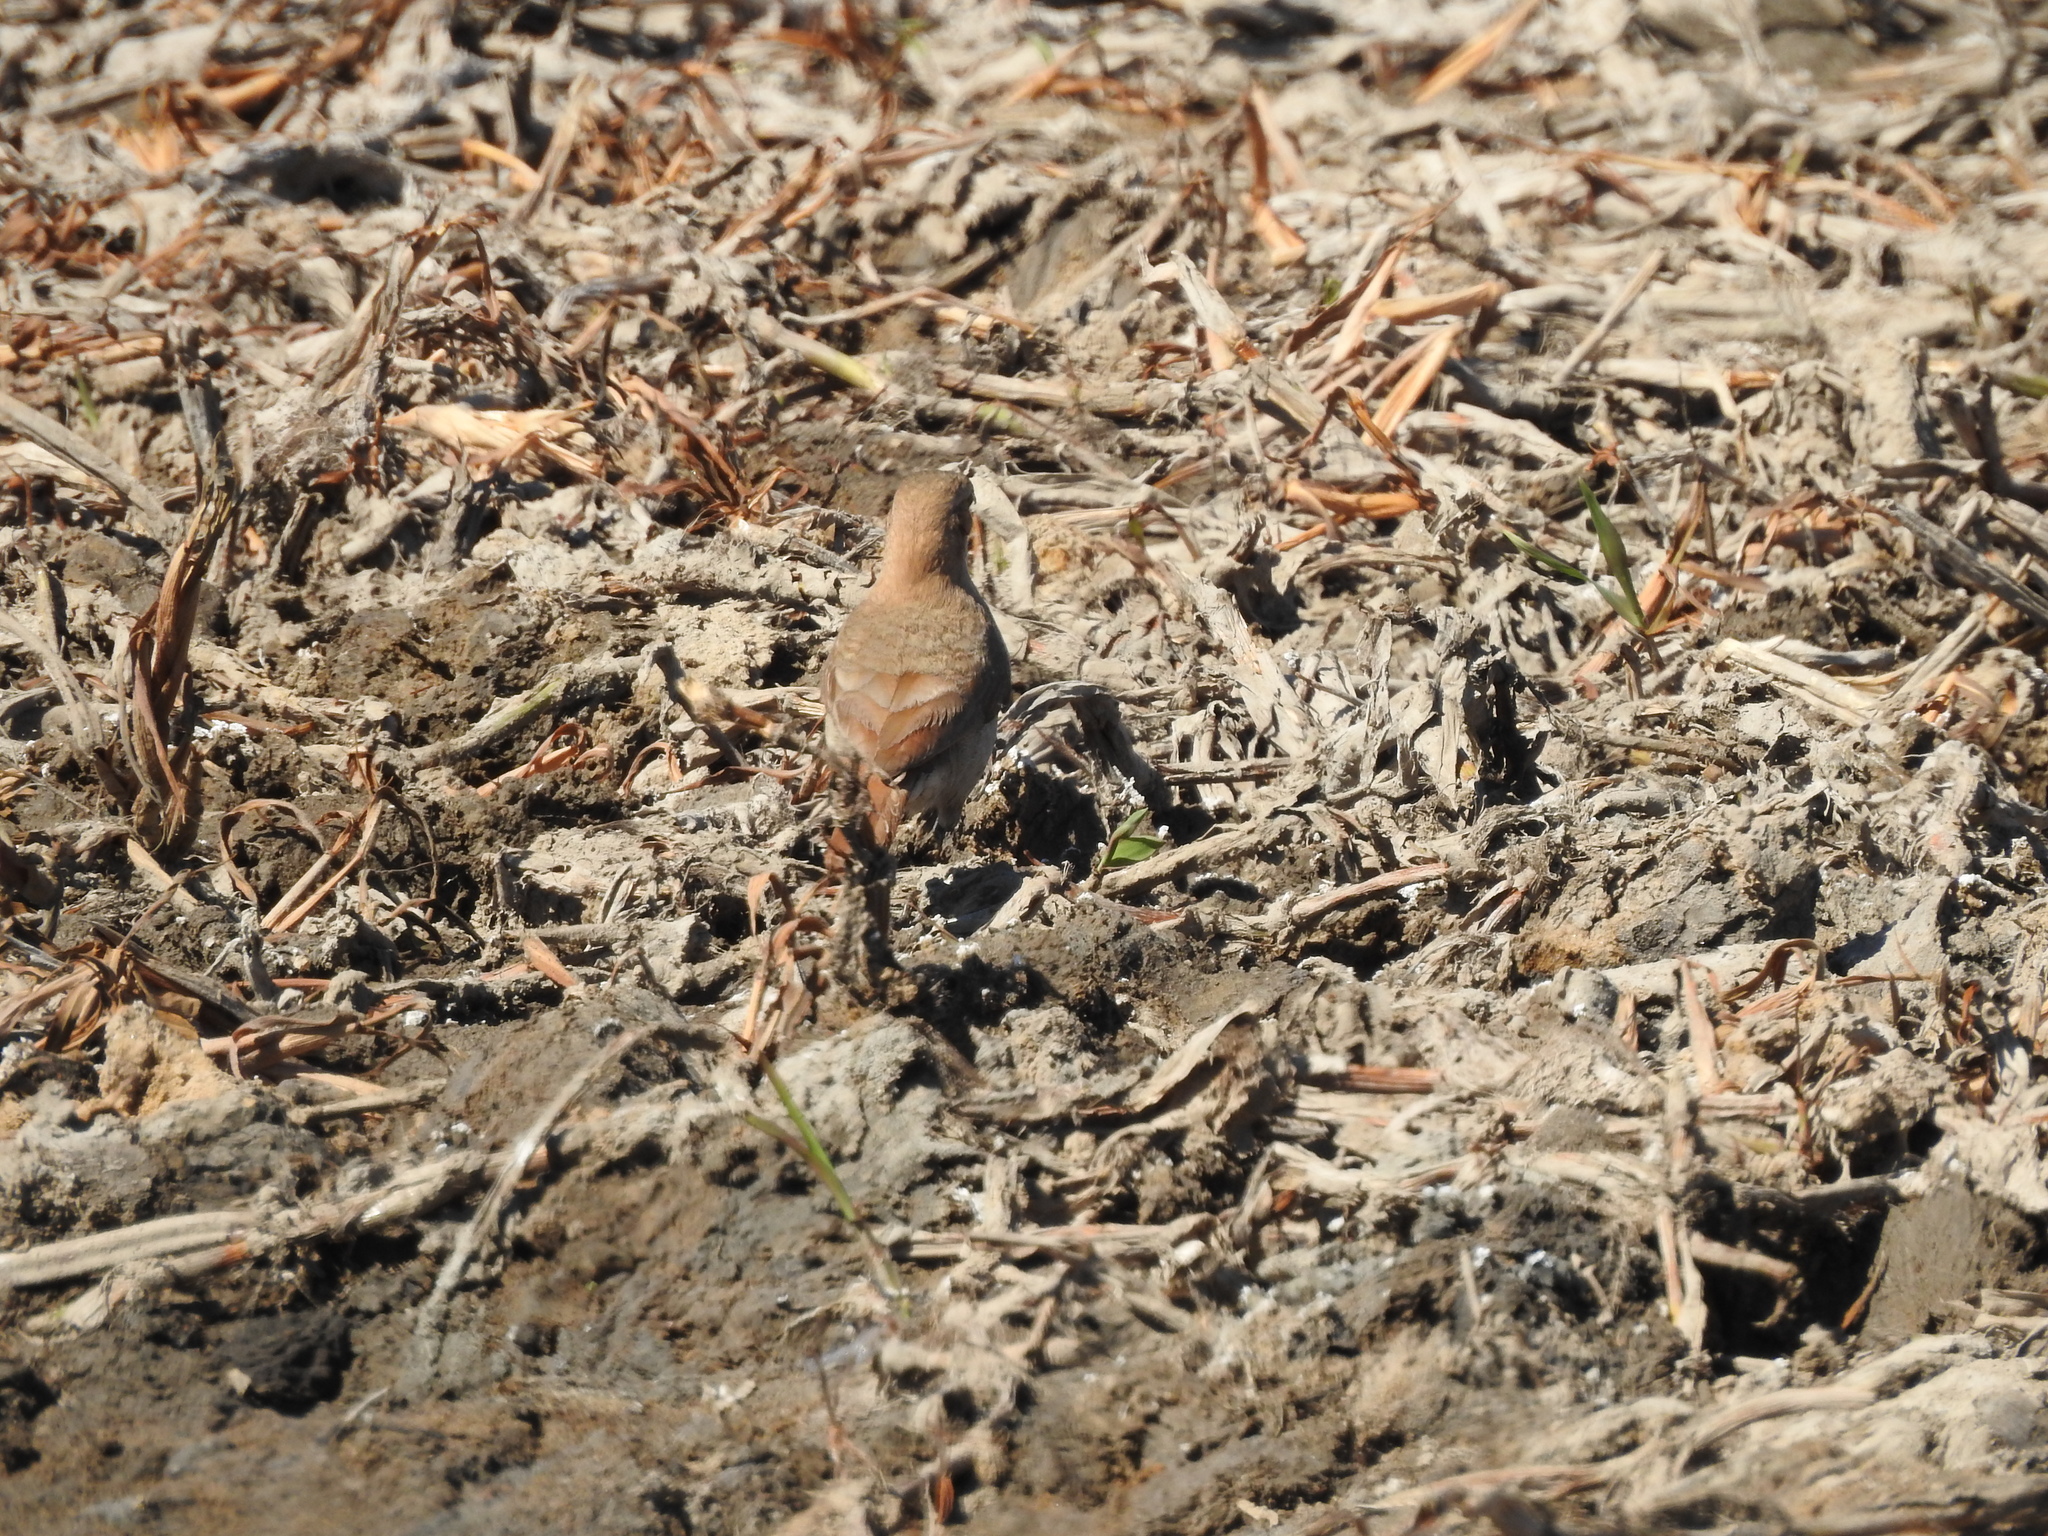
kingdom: Animalia
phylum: Chordata
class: Aves
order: Passeriformes
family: Furnariidae
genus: Furnarius
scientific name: Furnarius rufus
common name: Rufous hornero
